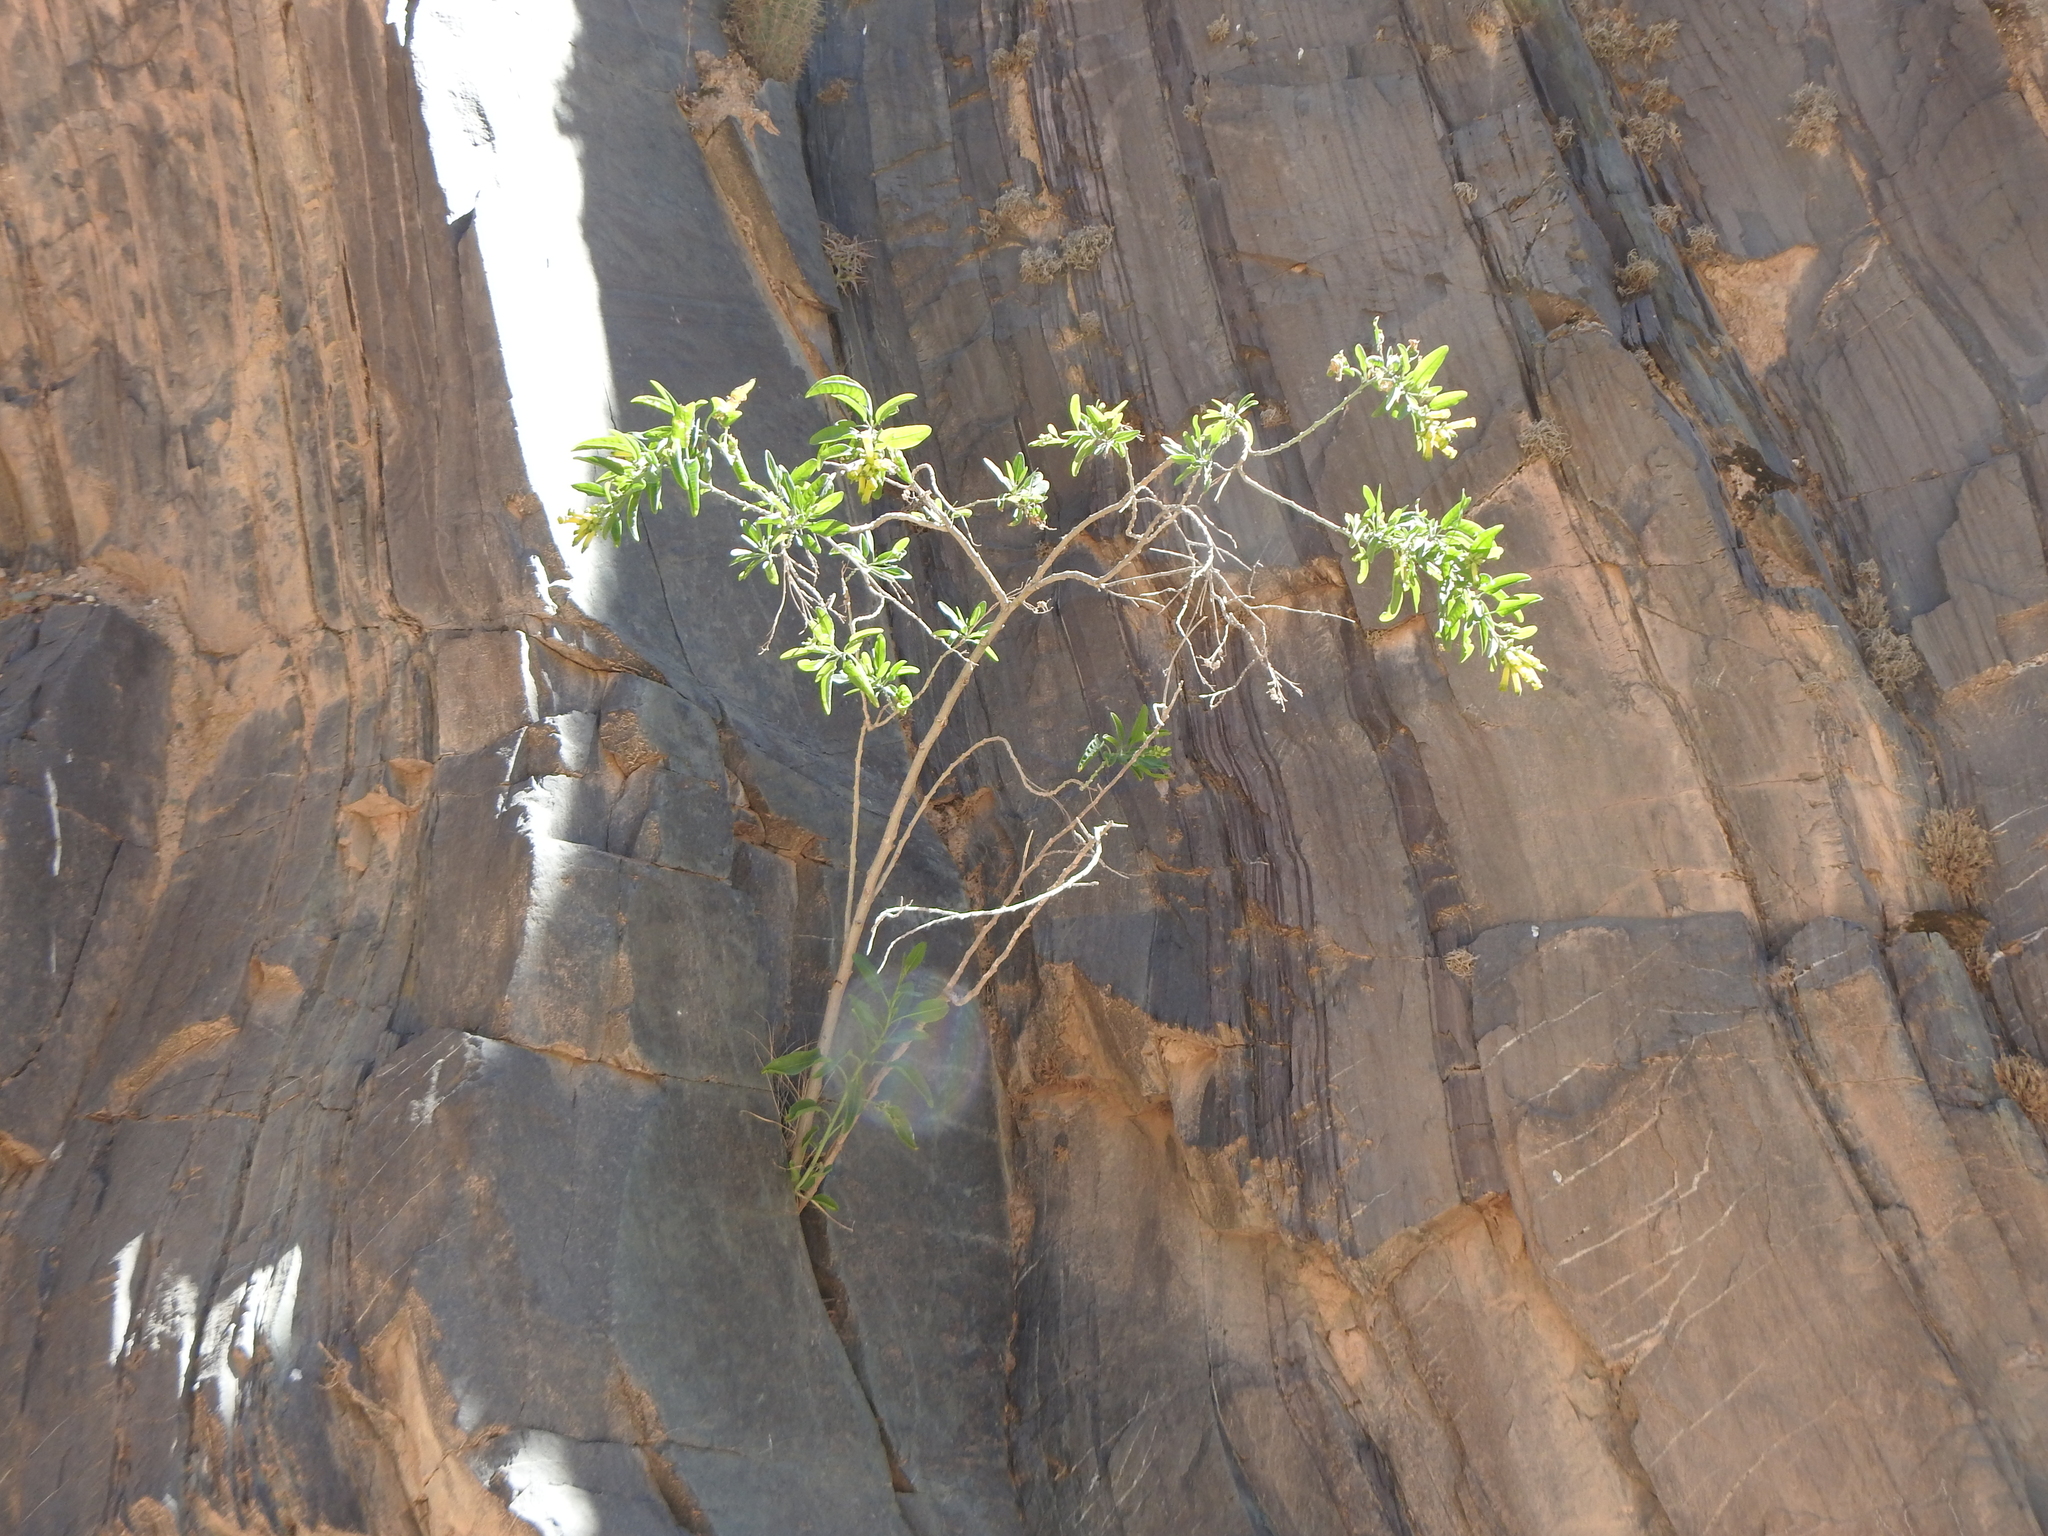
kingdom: Plantae
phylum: Tracheophyta
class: Magnoliopsida
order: Solanales
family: Solanaceae
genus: Nicotiana
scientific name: Nicotiana glauca
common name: Tree tobacco
